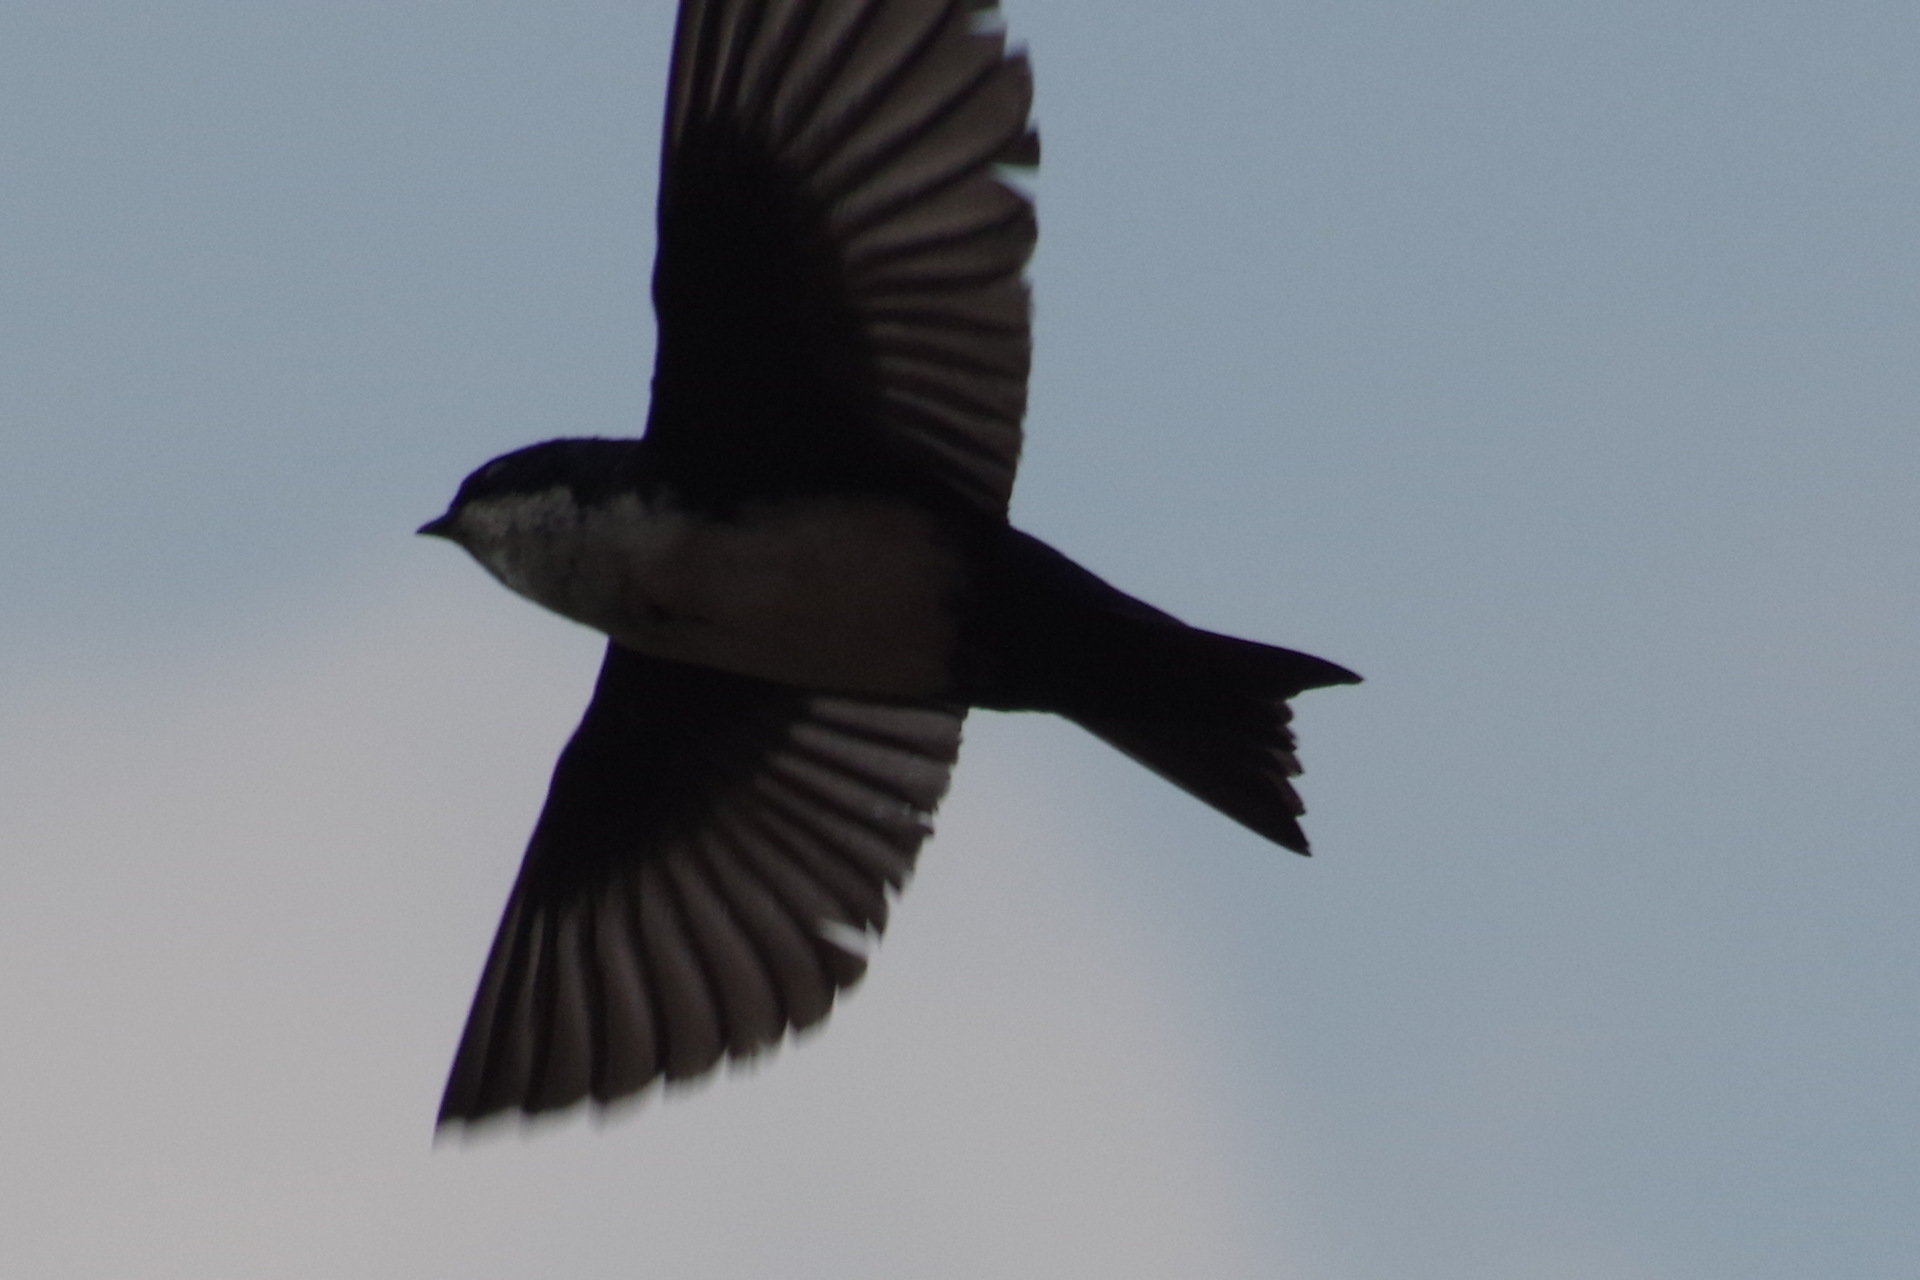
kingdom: Animalia
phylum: Chordata
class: Aves
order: Passeriformes
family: Hirundinidae
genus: Notiochelidon
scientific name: Notiochelidon cyanoleuca
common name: Blue-and-white swallow
